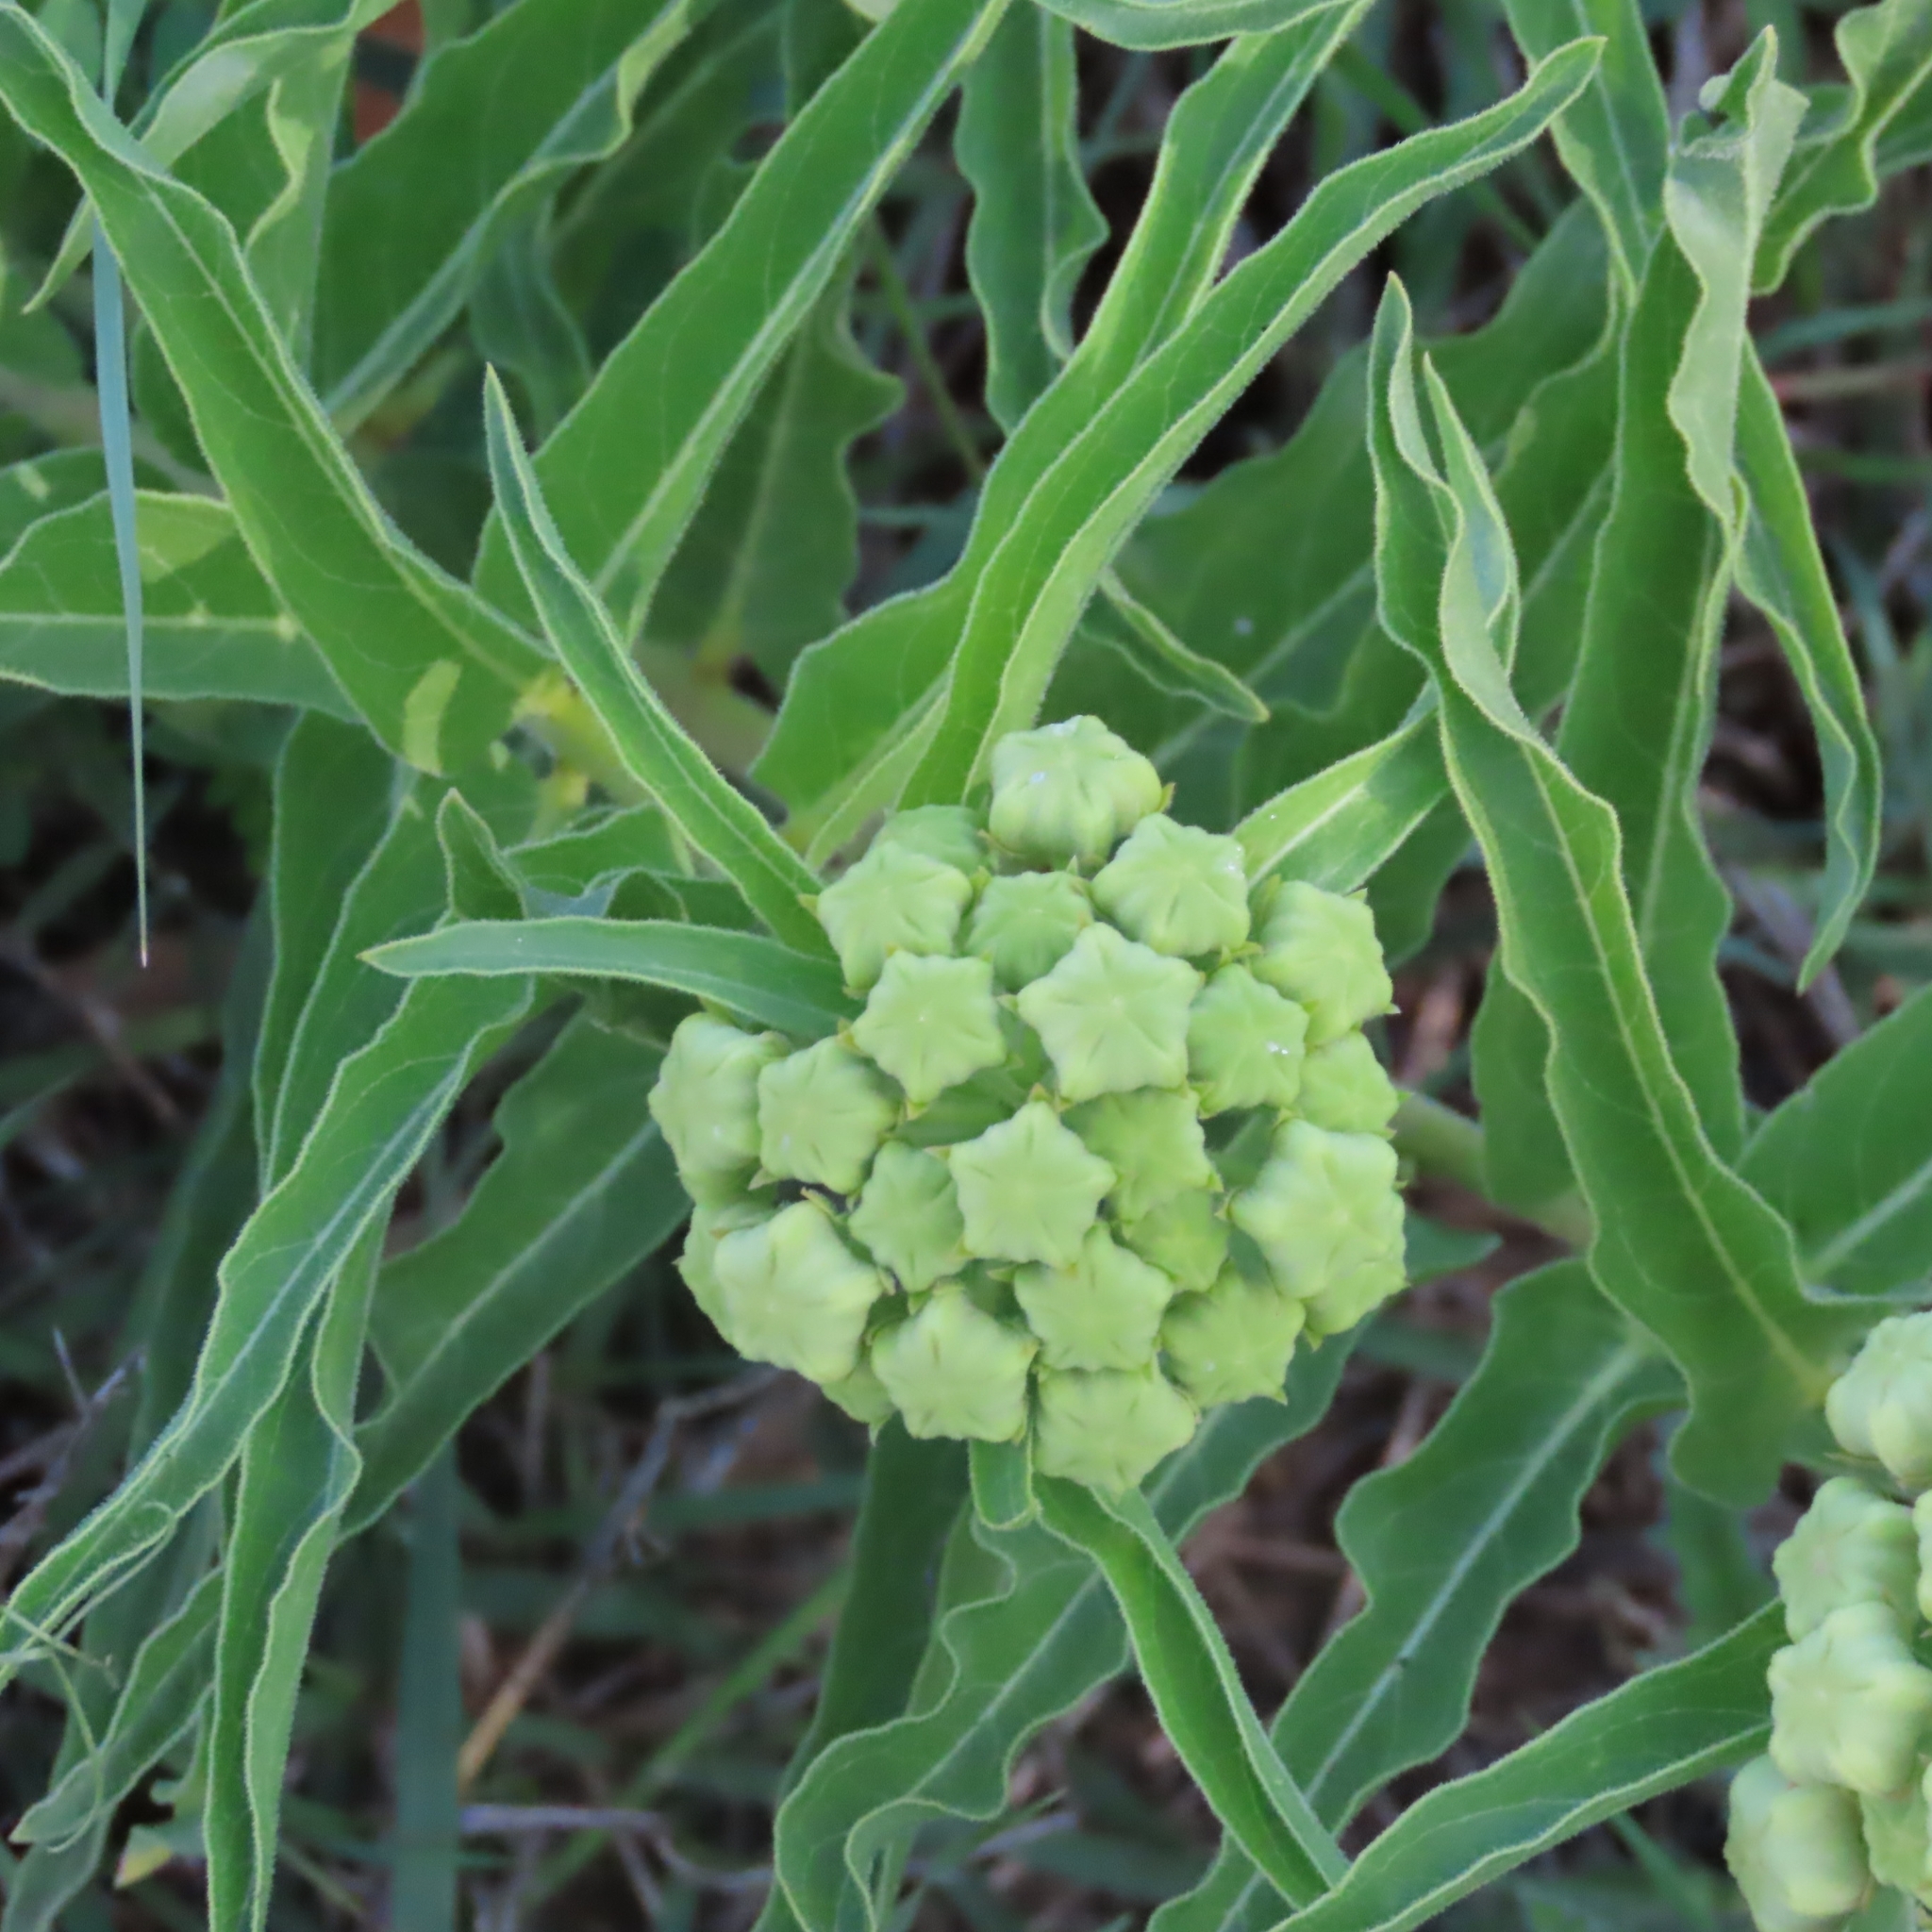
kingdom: Plantae
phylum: Tracheophyta
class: Magnoliopsida
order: Gentianales
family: Apocynaceae
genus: Asclepias
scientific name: Asclepias asperula
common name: Antelope horns
